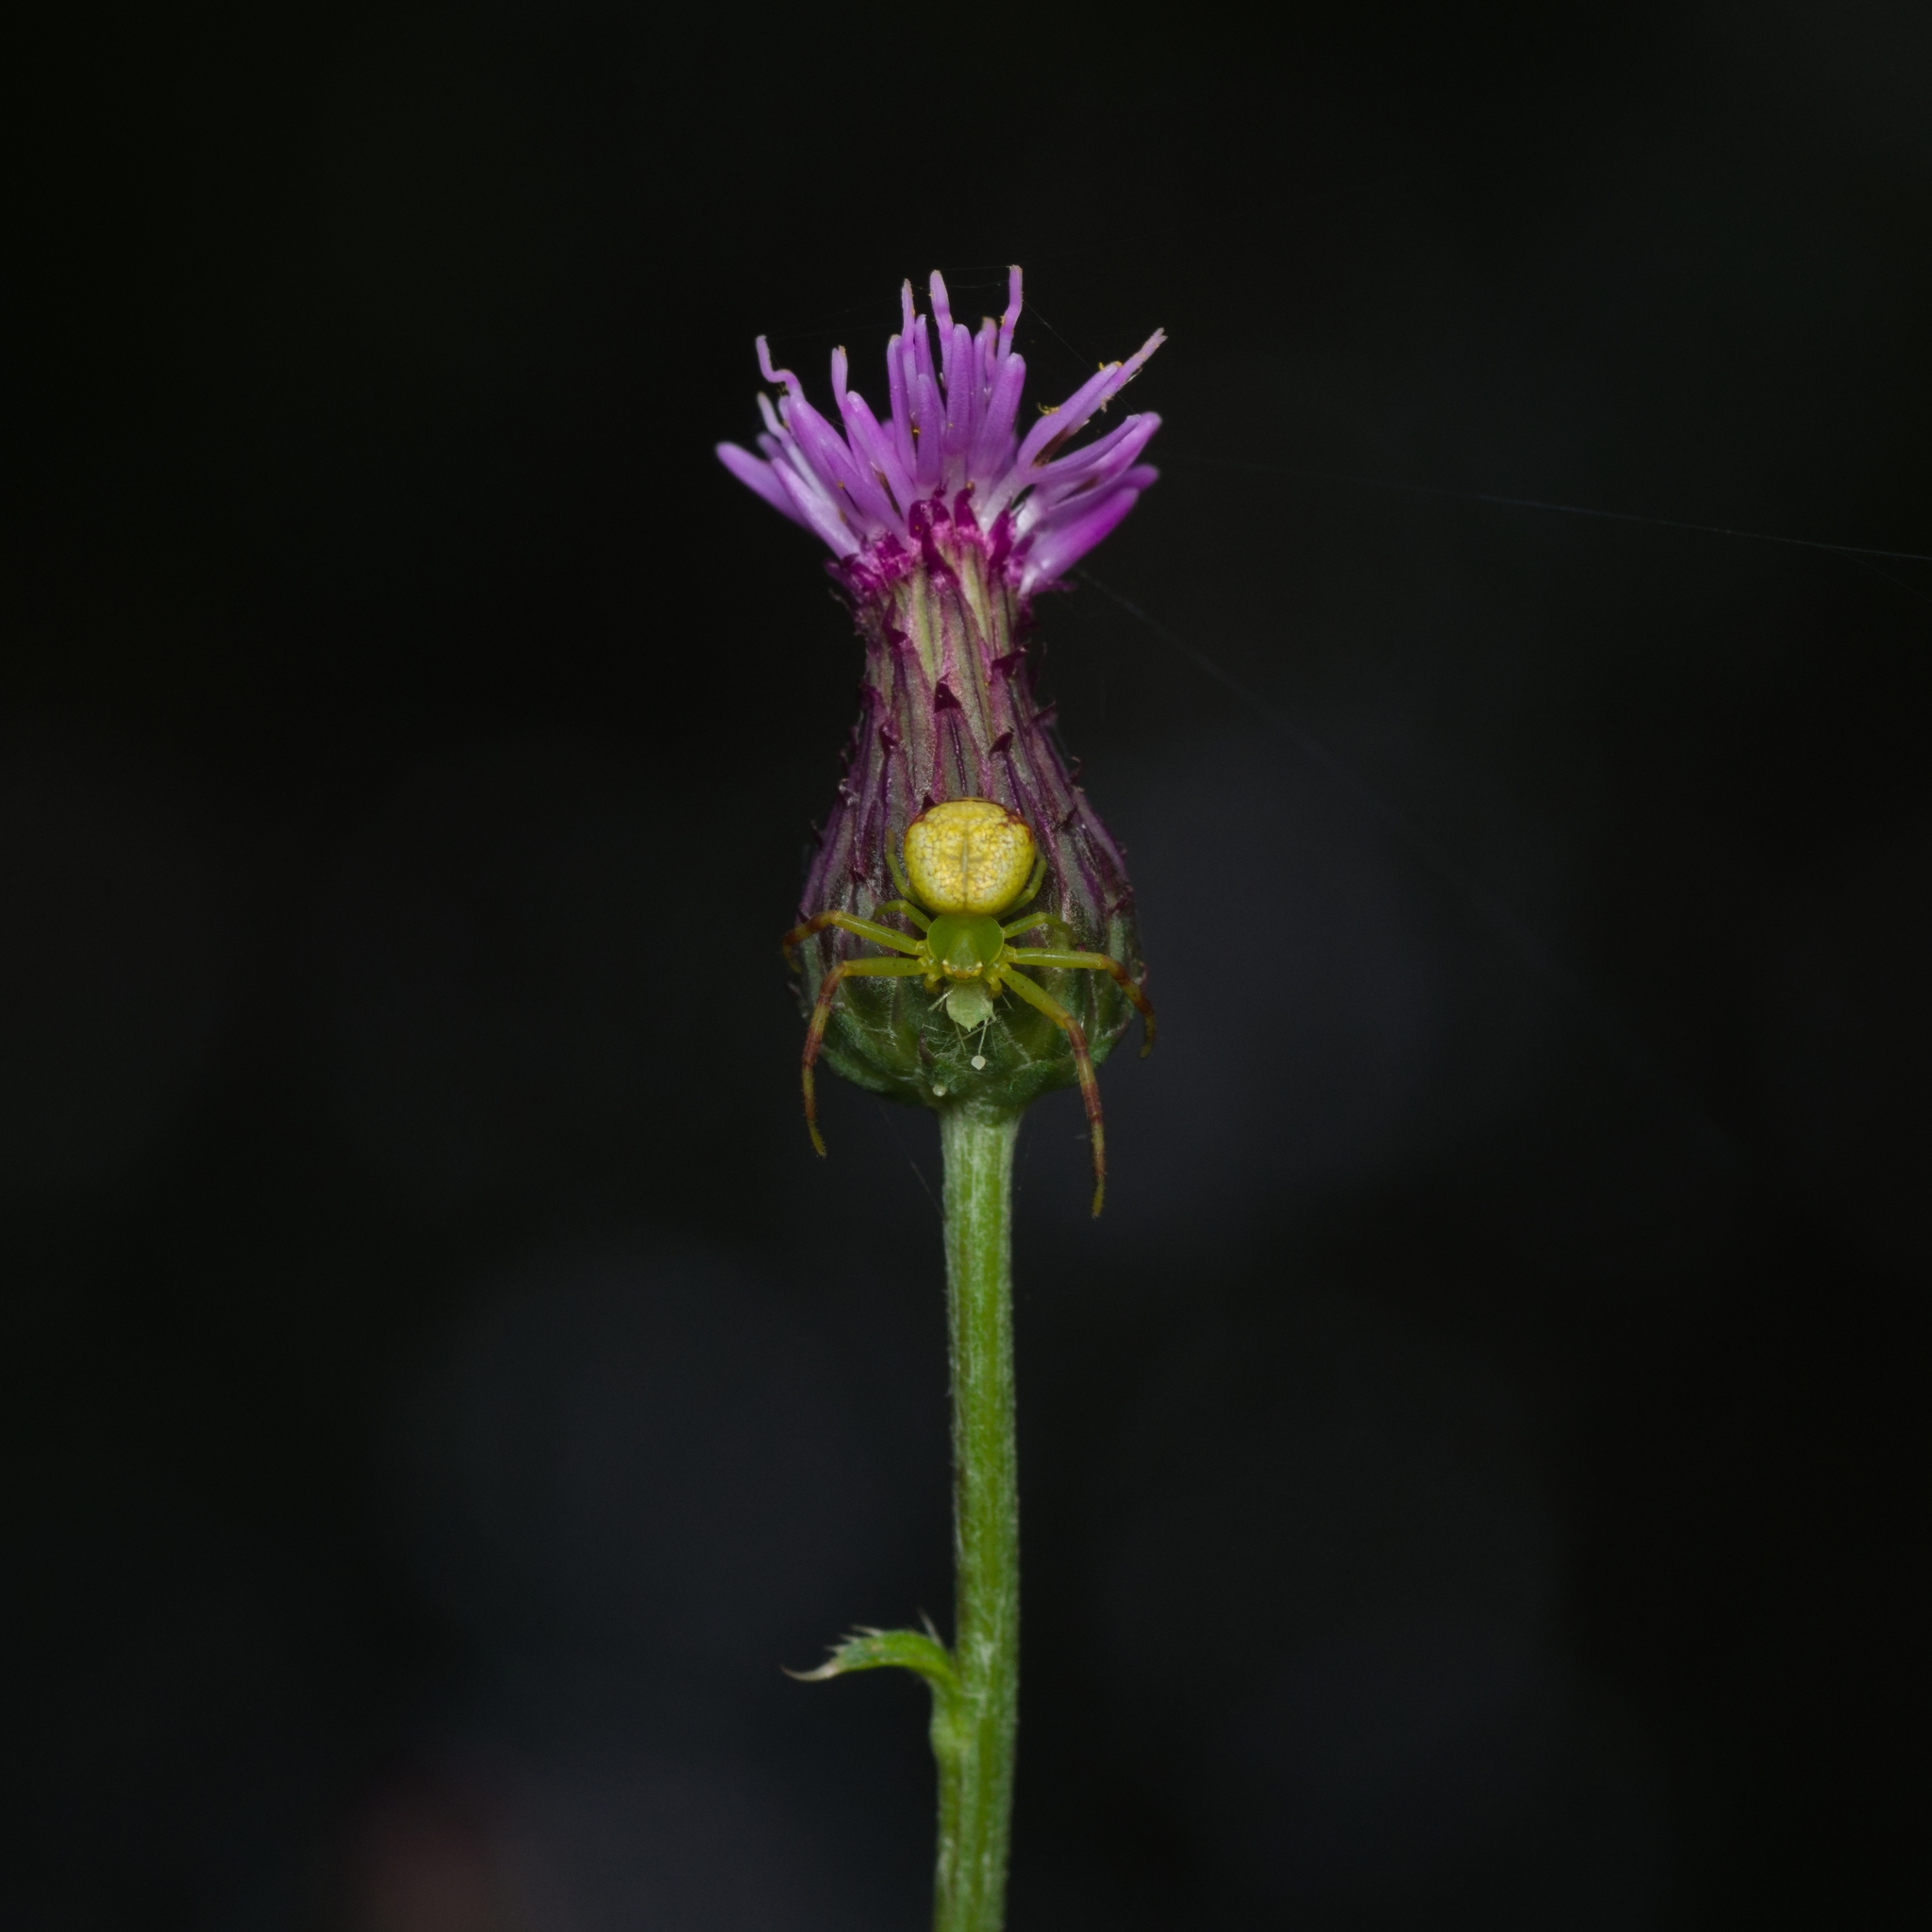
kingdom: Animalia
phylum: Arthropoda
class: Arachnida
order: Araneae
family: Thomisidae
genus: Ebrechtella
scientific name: Ebrechtella tricuspidata
